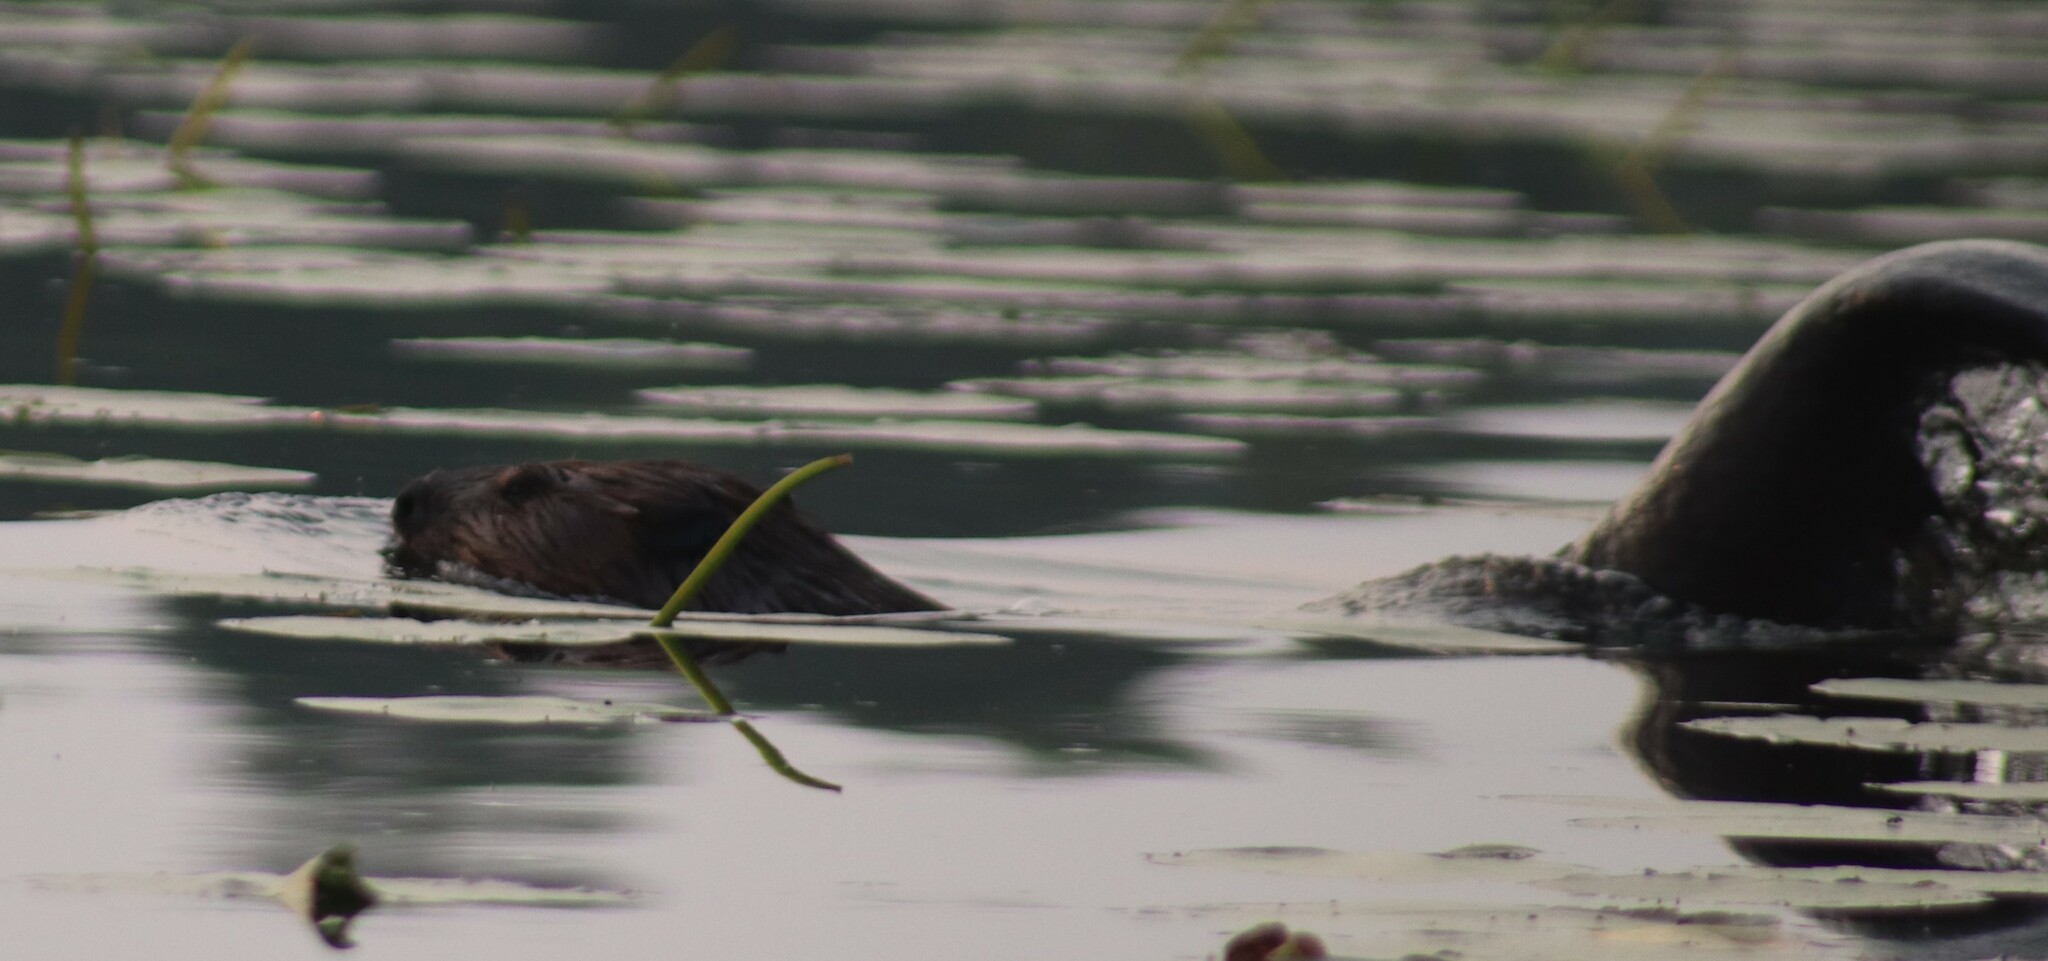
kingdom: Animalia
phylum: Chordata
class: Mammalia
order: Rodentia
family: Castoridae
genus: Castor
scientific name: Castor canadensis
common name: American beaver
